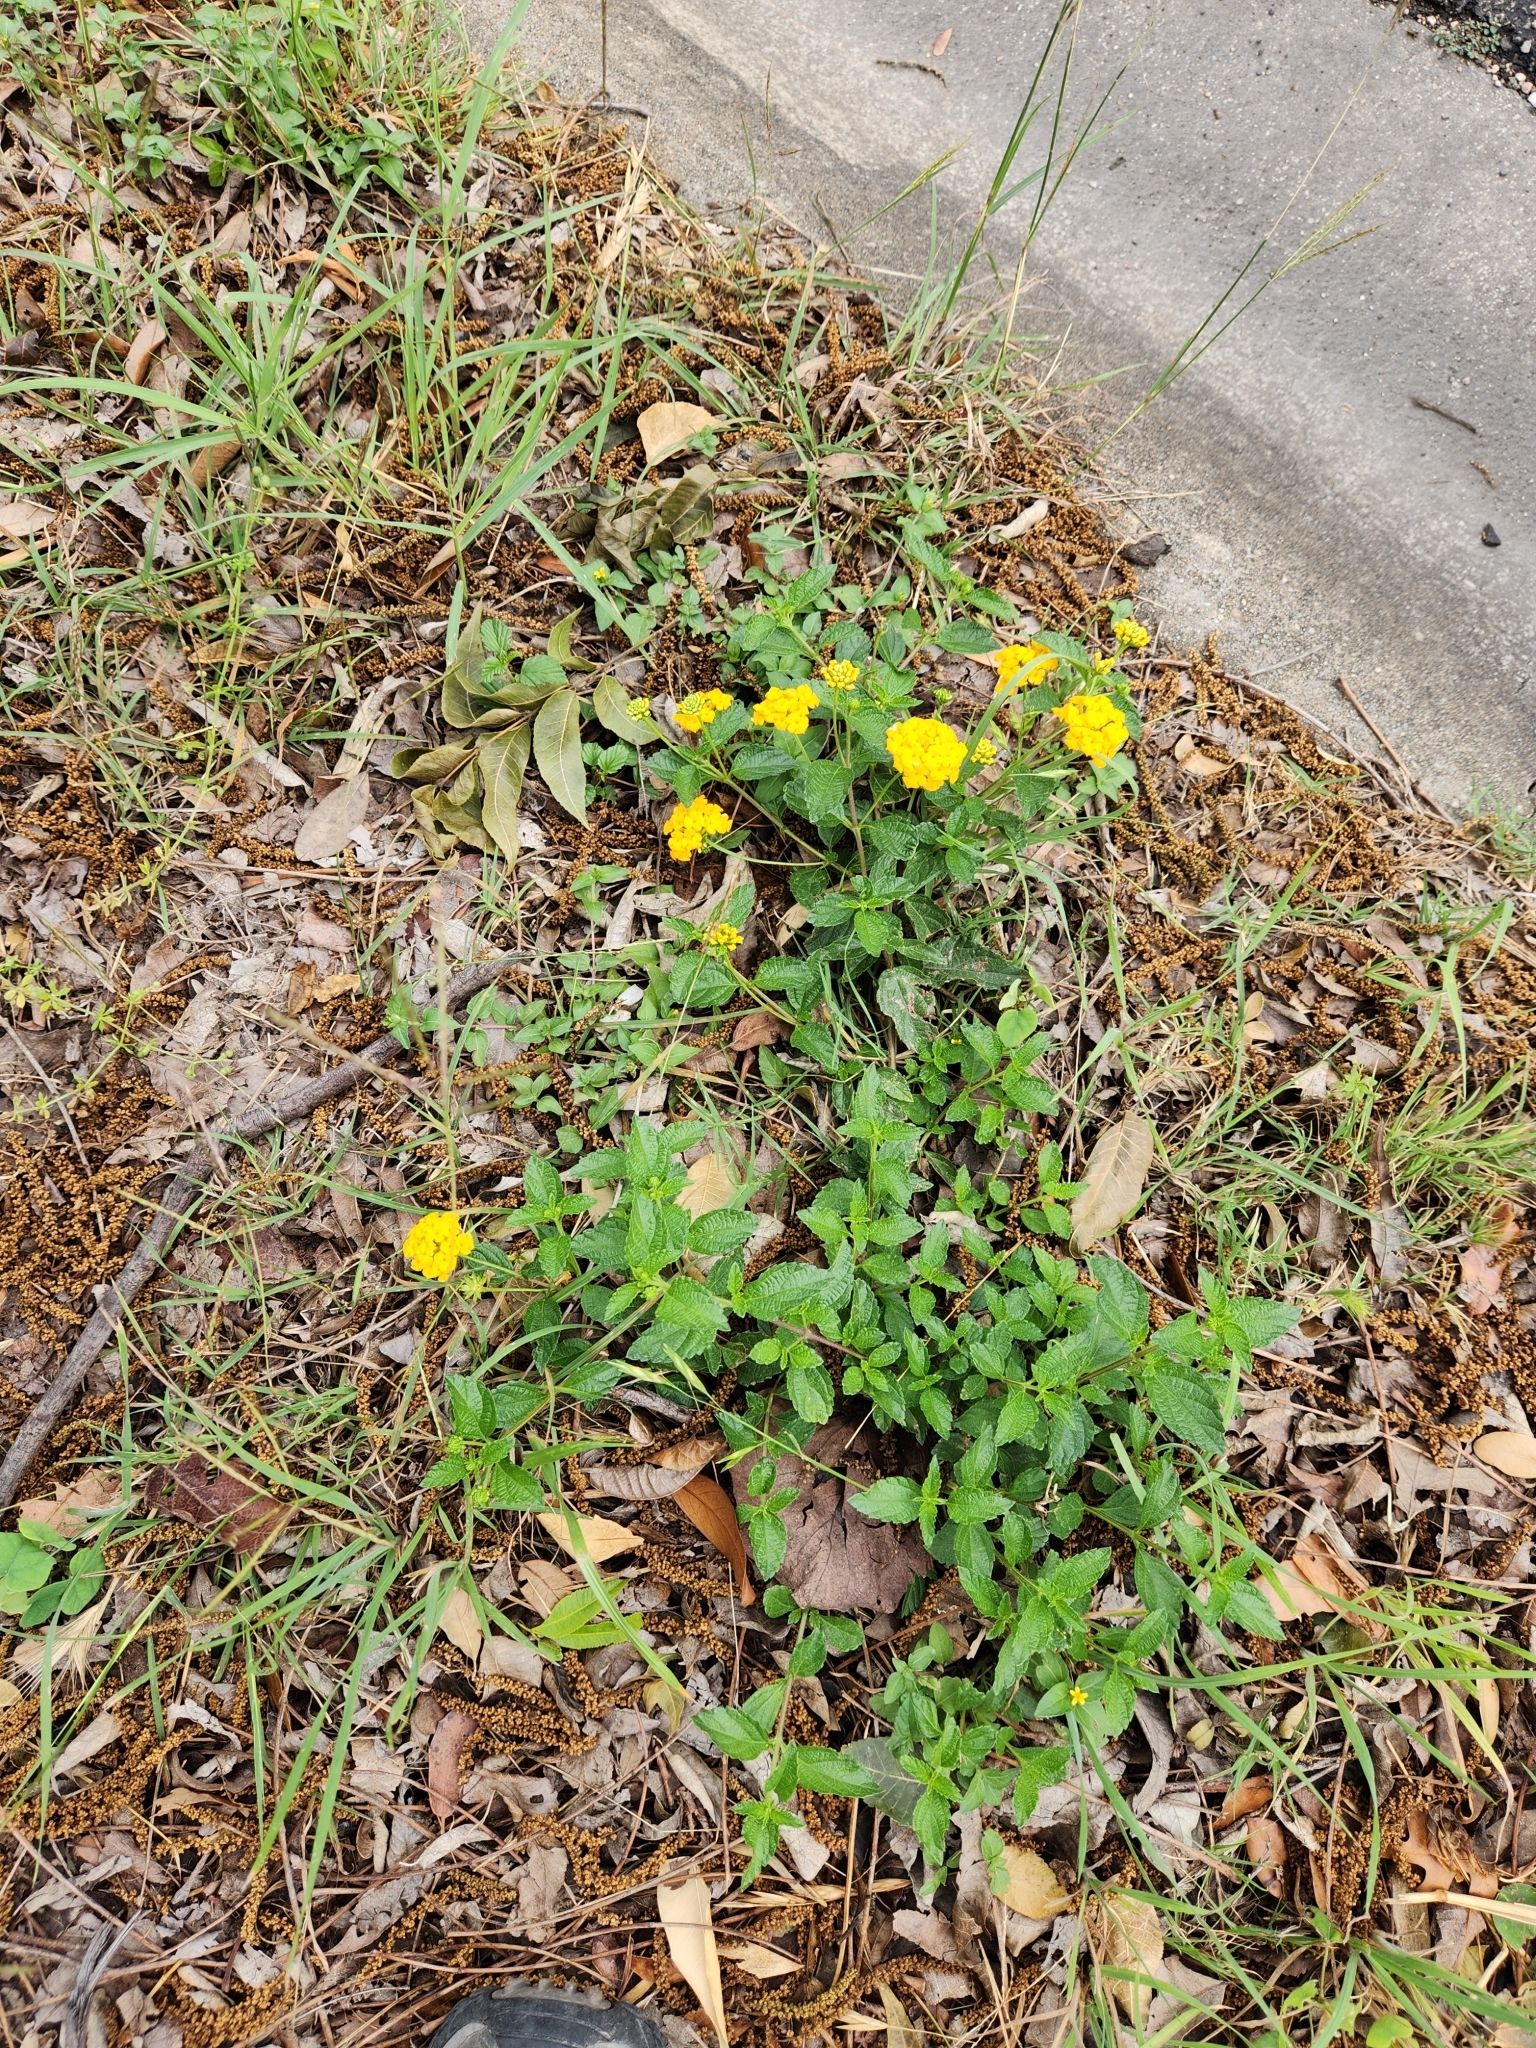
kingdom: Plantae
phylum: Tracheophyta
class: Magnoliopsida
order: Lamiales
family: Verbenaceae
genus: Lantana
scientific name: Lantana polyacantha
